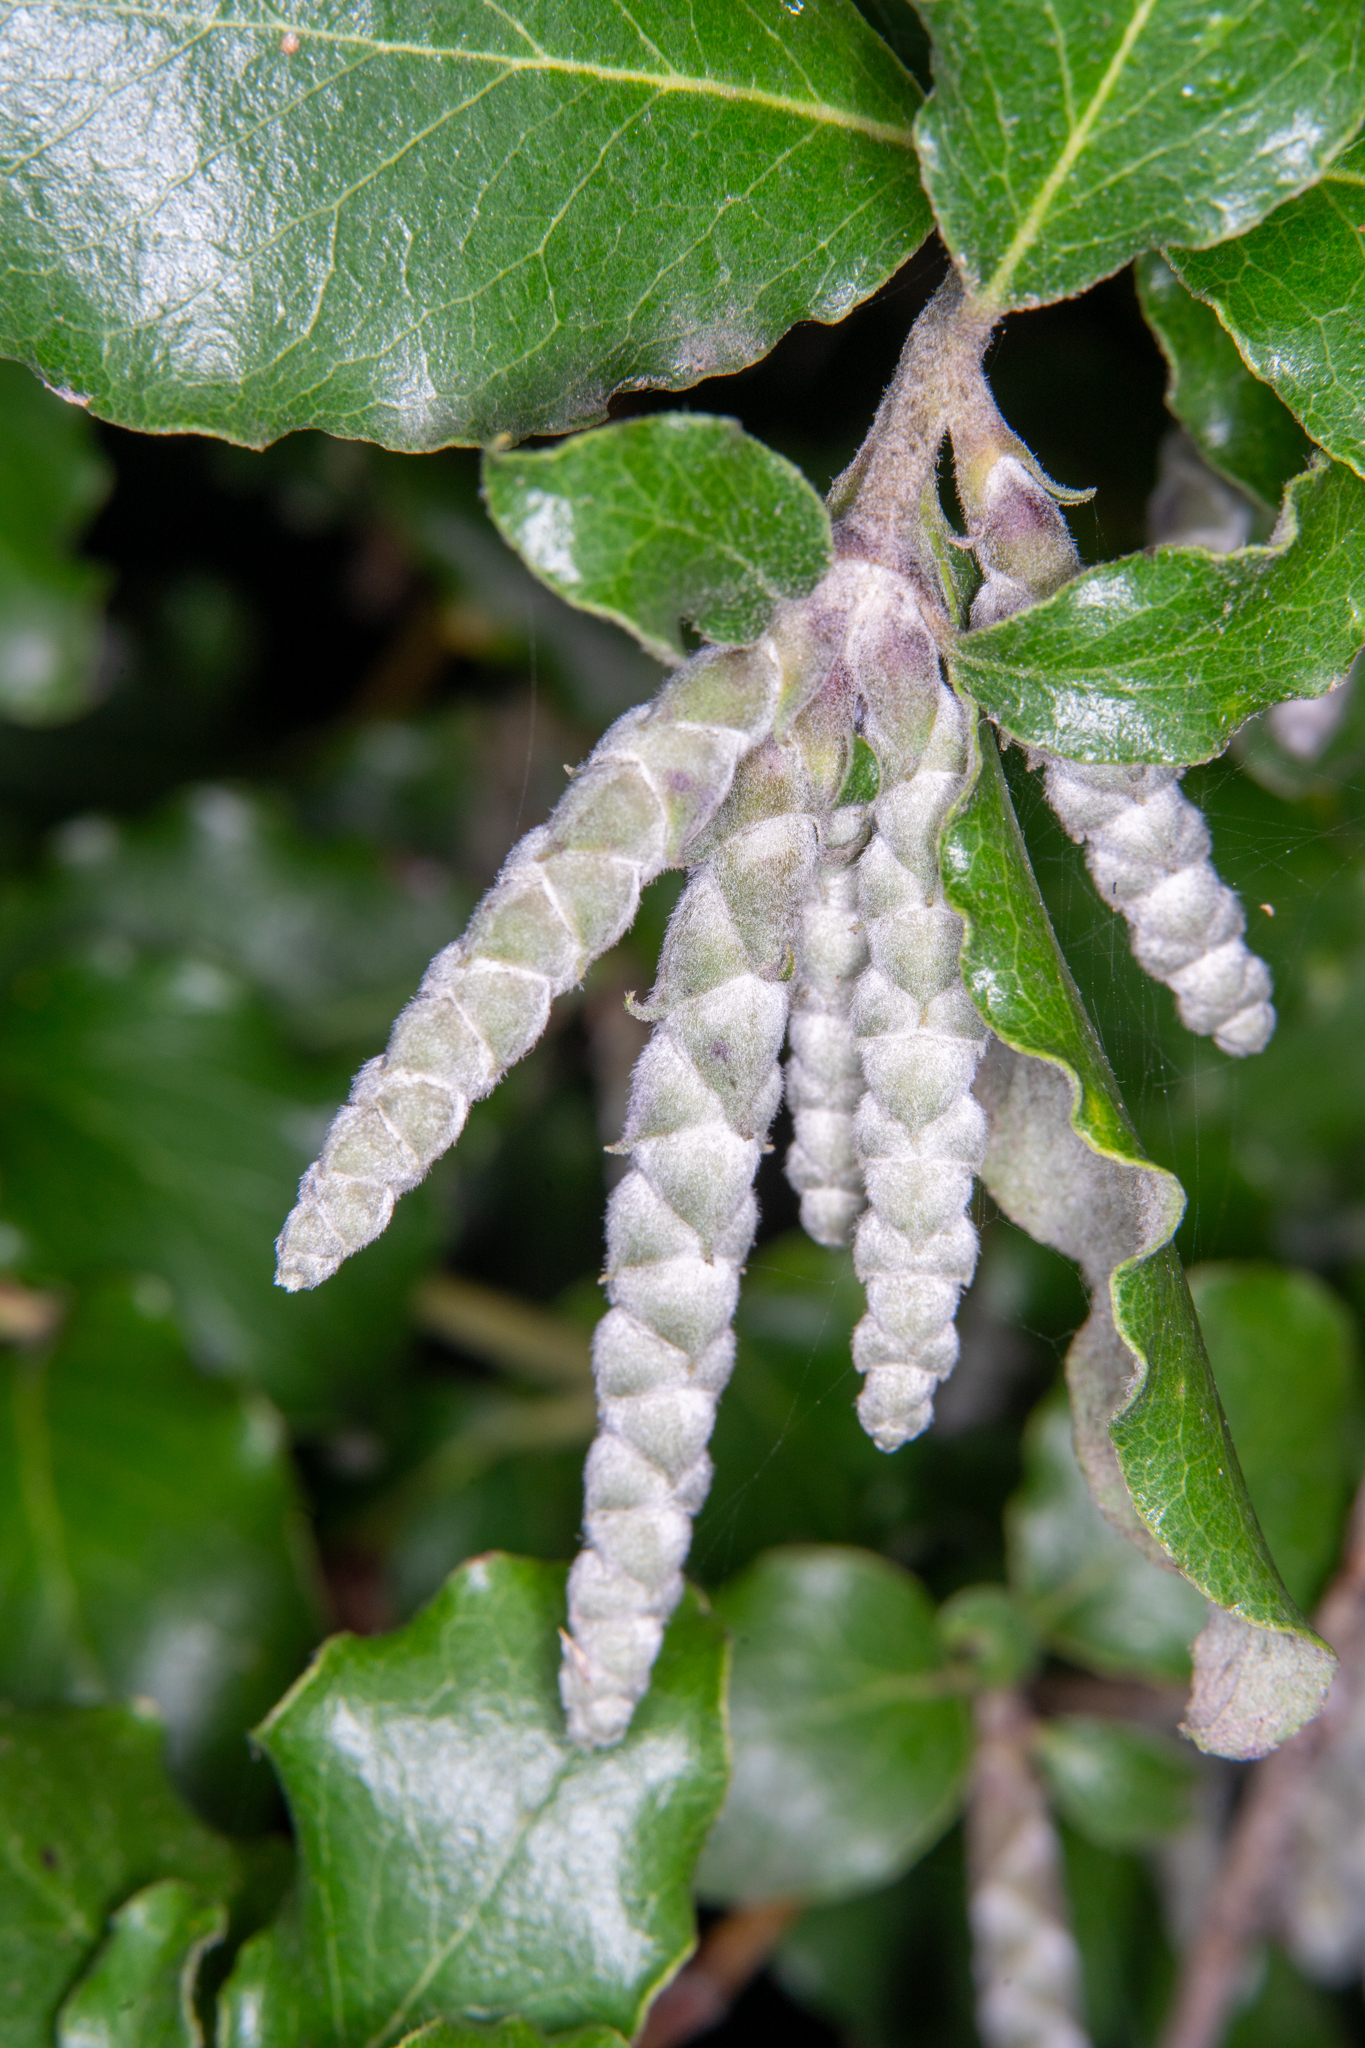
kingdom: Plantae
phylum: Tracheophyta
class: Magnoliopsida
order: Garryales
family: Garryaceae
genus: Garrya
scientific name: Garrya elliptica
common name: Silk-tassel
